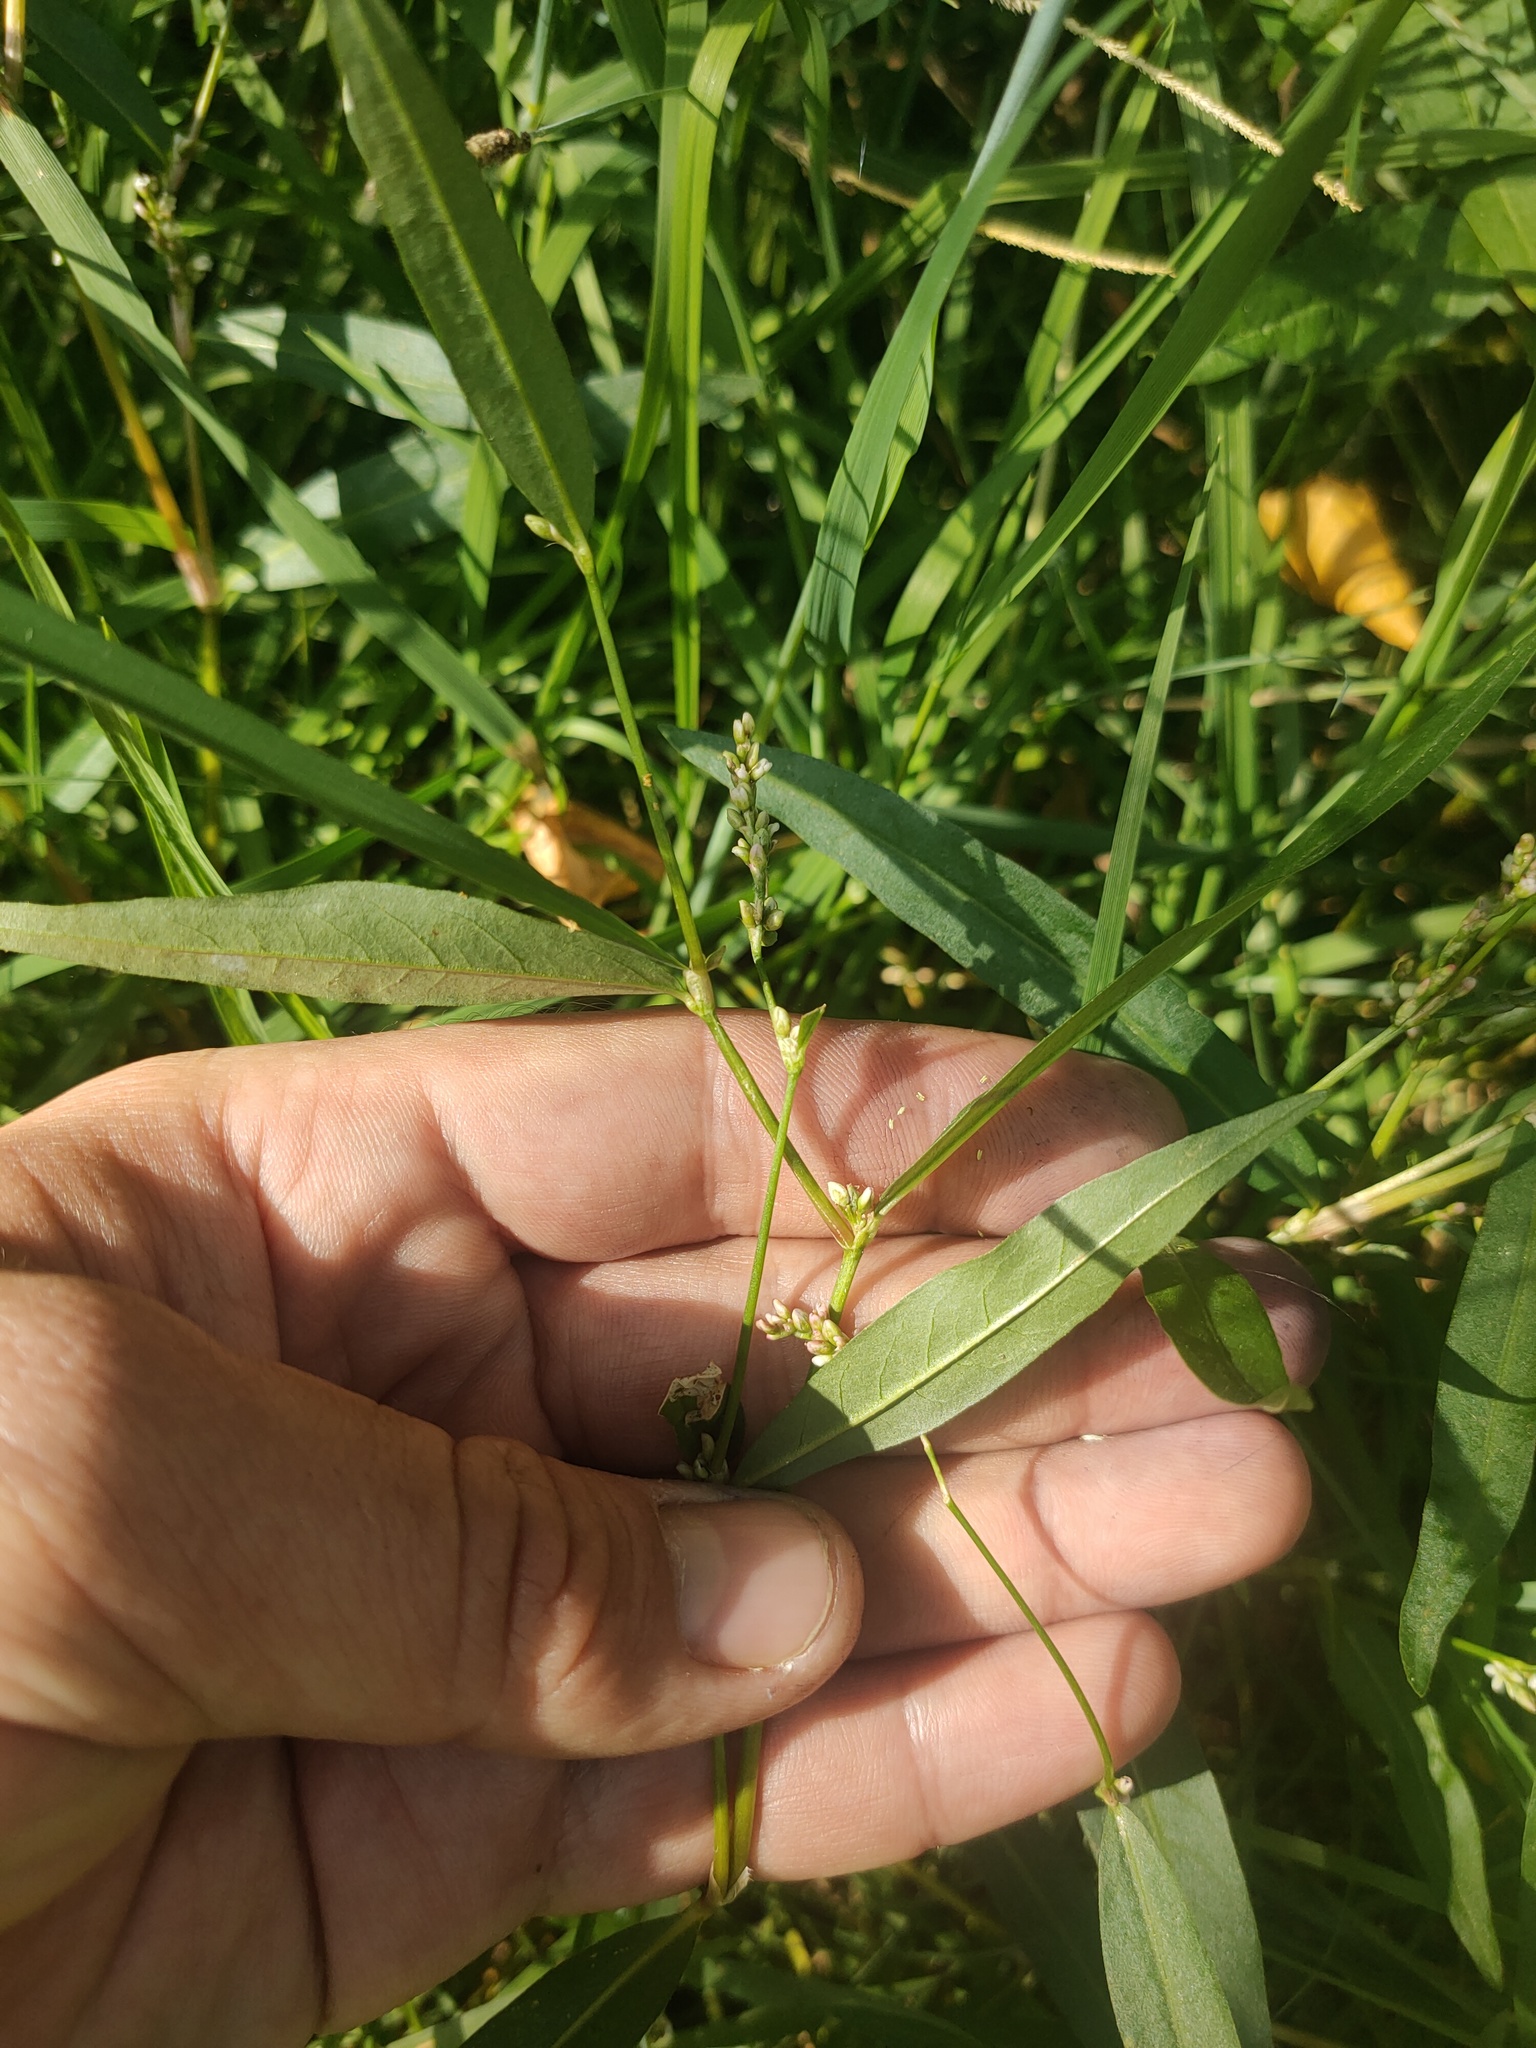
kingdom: Plantae
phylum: Tracheophyta
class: Magnoliopsida
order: Caryophyllales
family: Polygonaceae
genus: Persicaria
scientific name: Persicaria hydropiper
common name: Water-pepper
